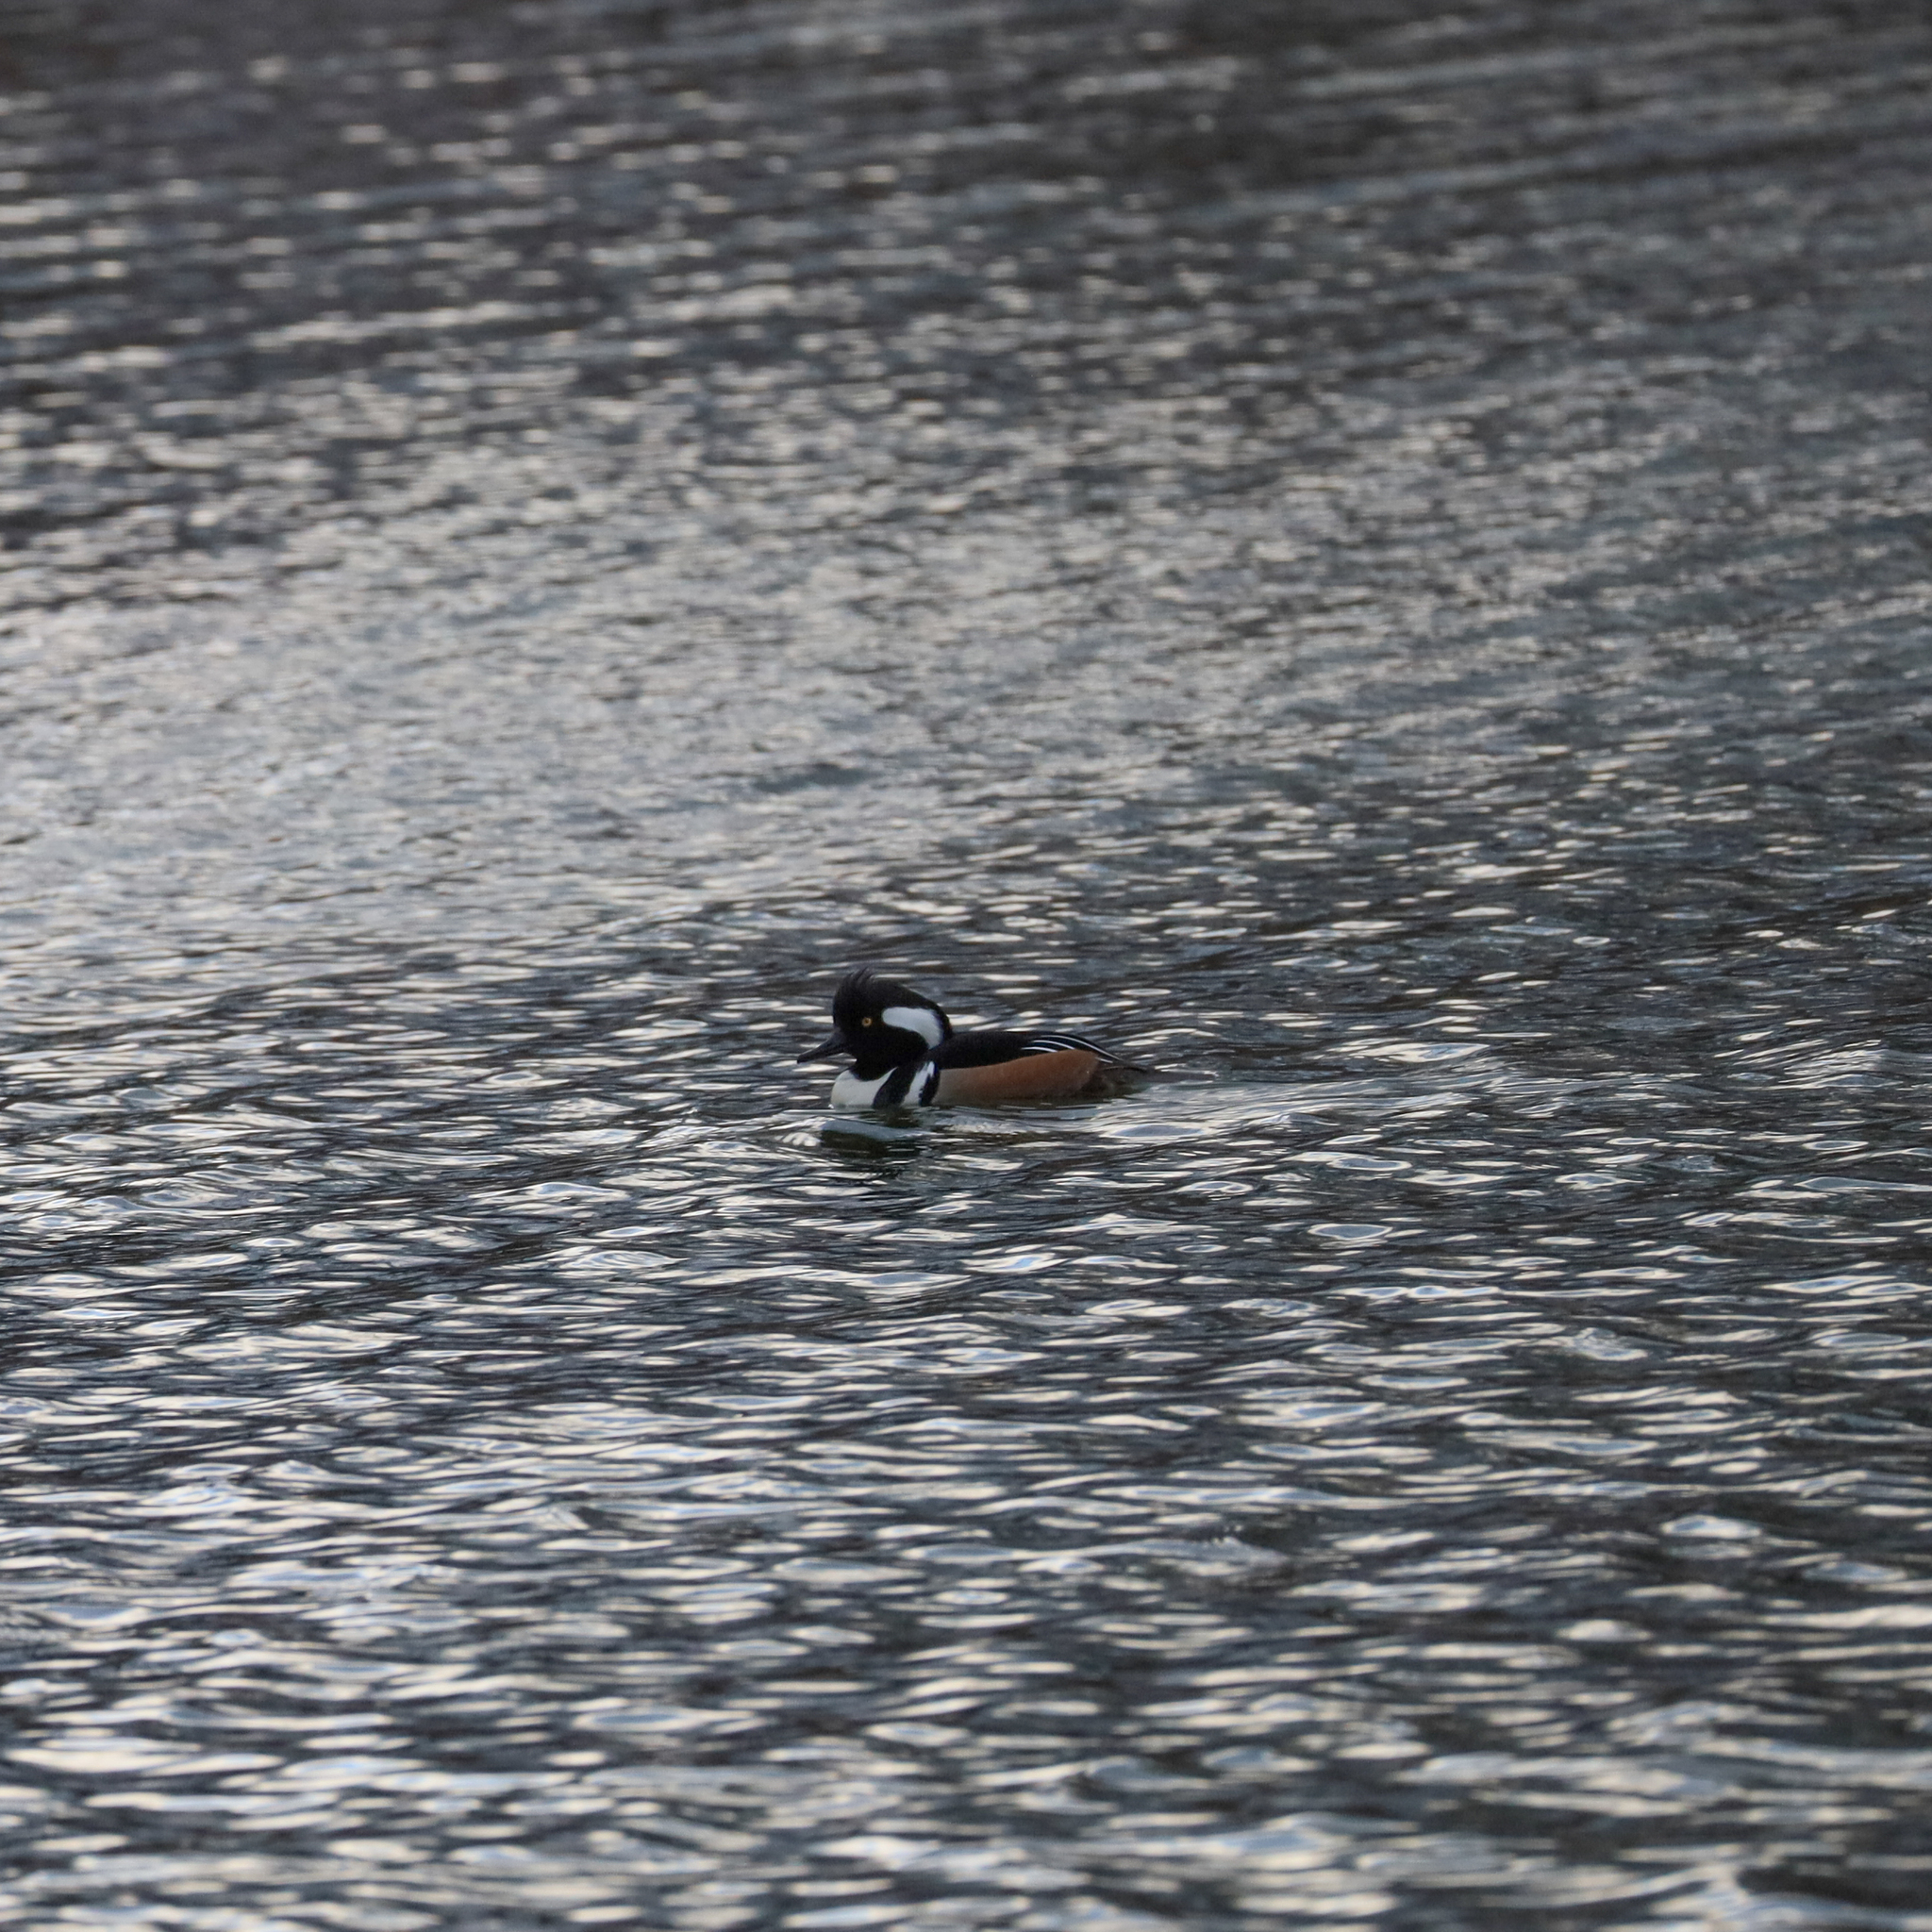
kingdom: Animalia
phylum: Chordata
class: Aves
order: Anseriformes
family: Anatidae
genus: Lophodytes
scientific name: Lophodytes cucullatus
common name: Hooded merganser
